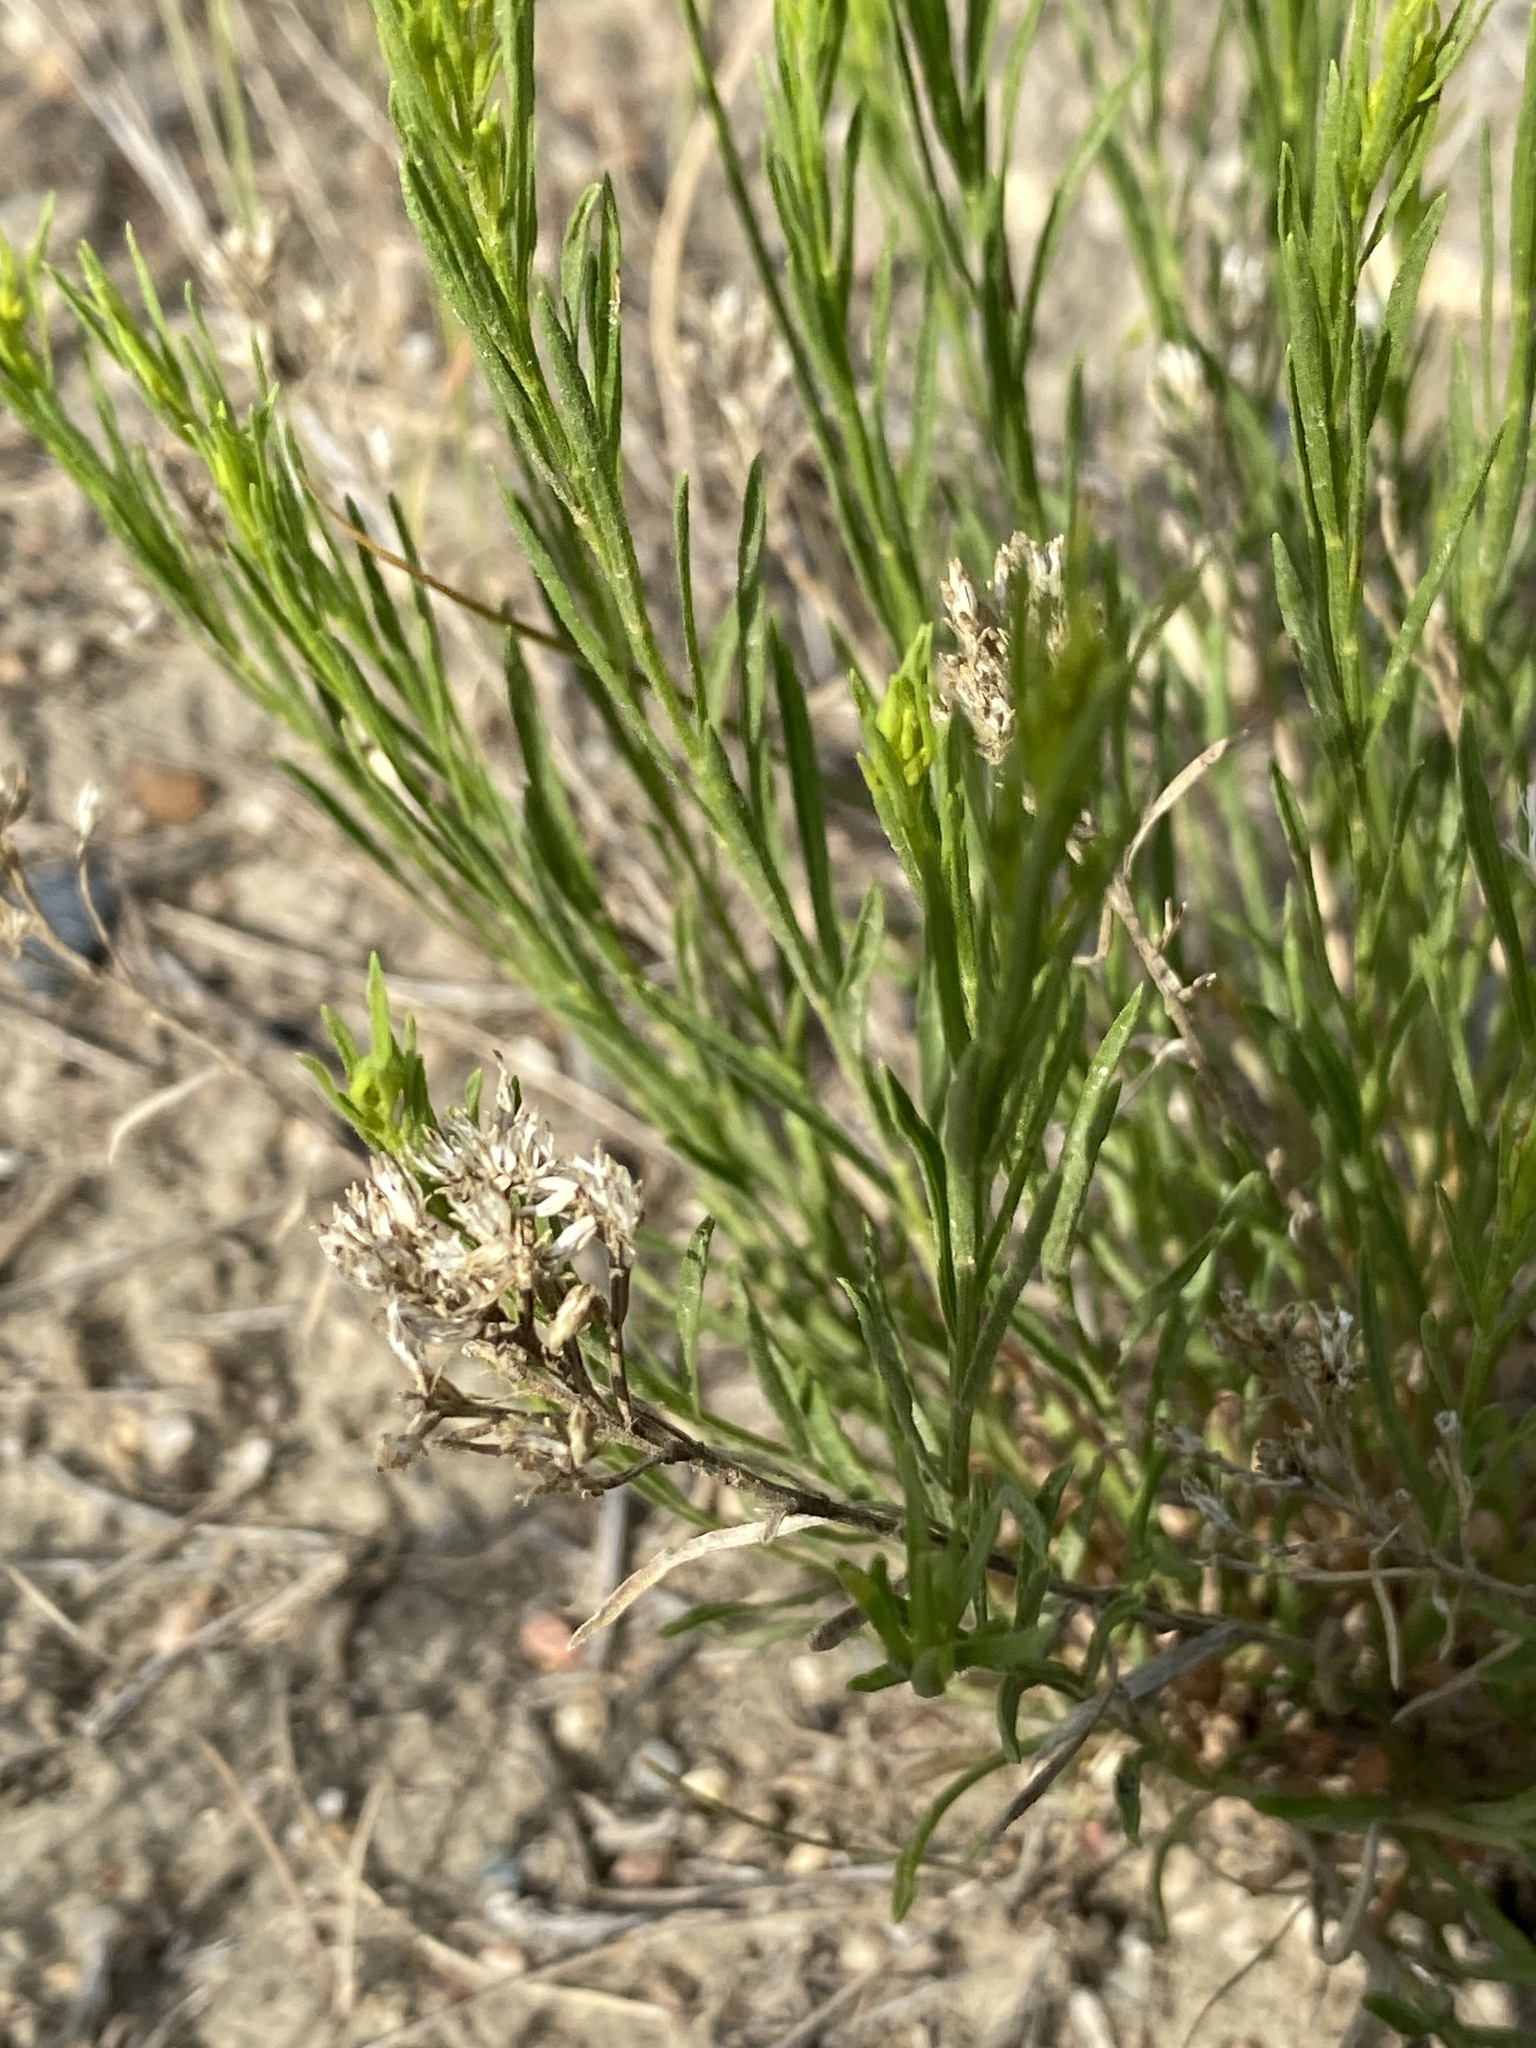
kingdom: Plantae
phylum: Tracheophyta
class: Magnoliopsida
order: Asterales
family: Asteraceae
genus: Gutierrezia
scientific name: Gutierrezia sarothrae
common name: Broom snakeweed
